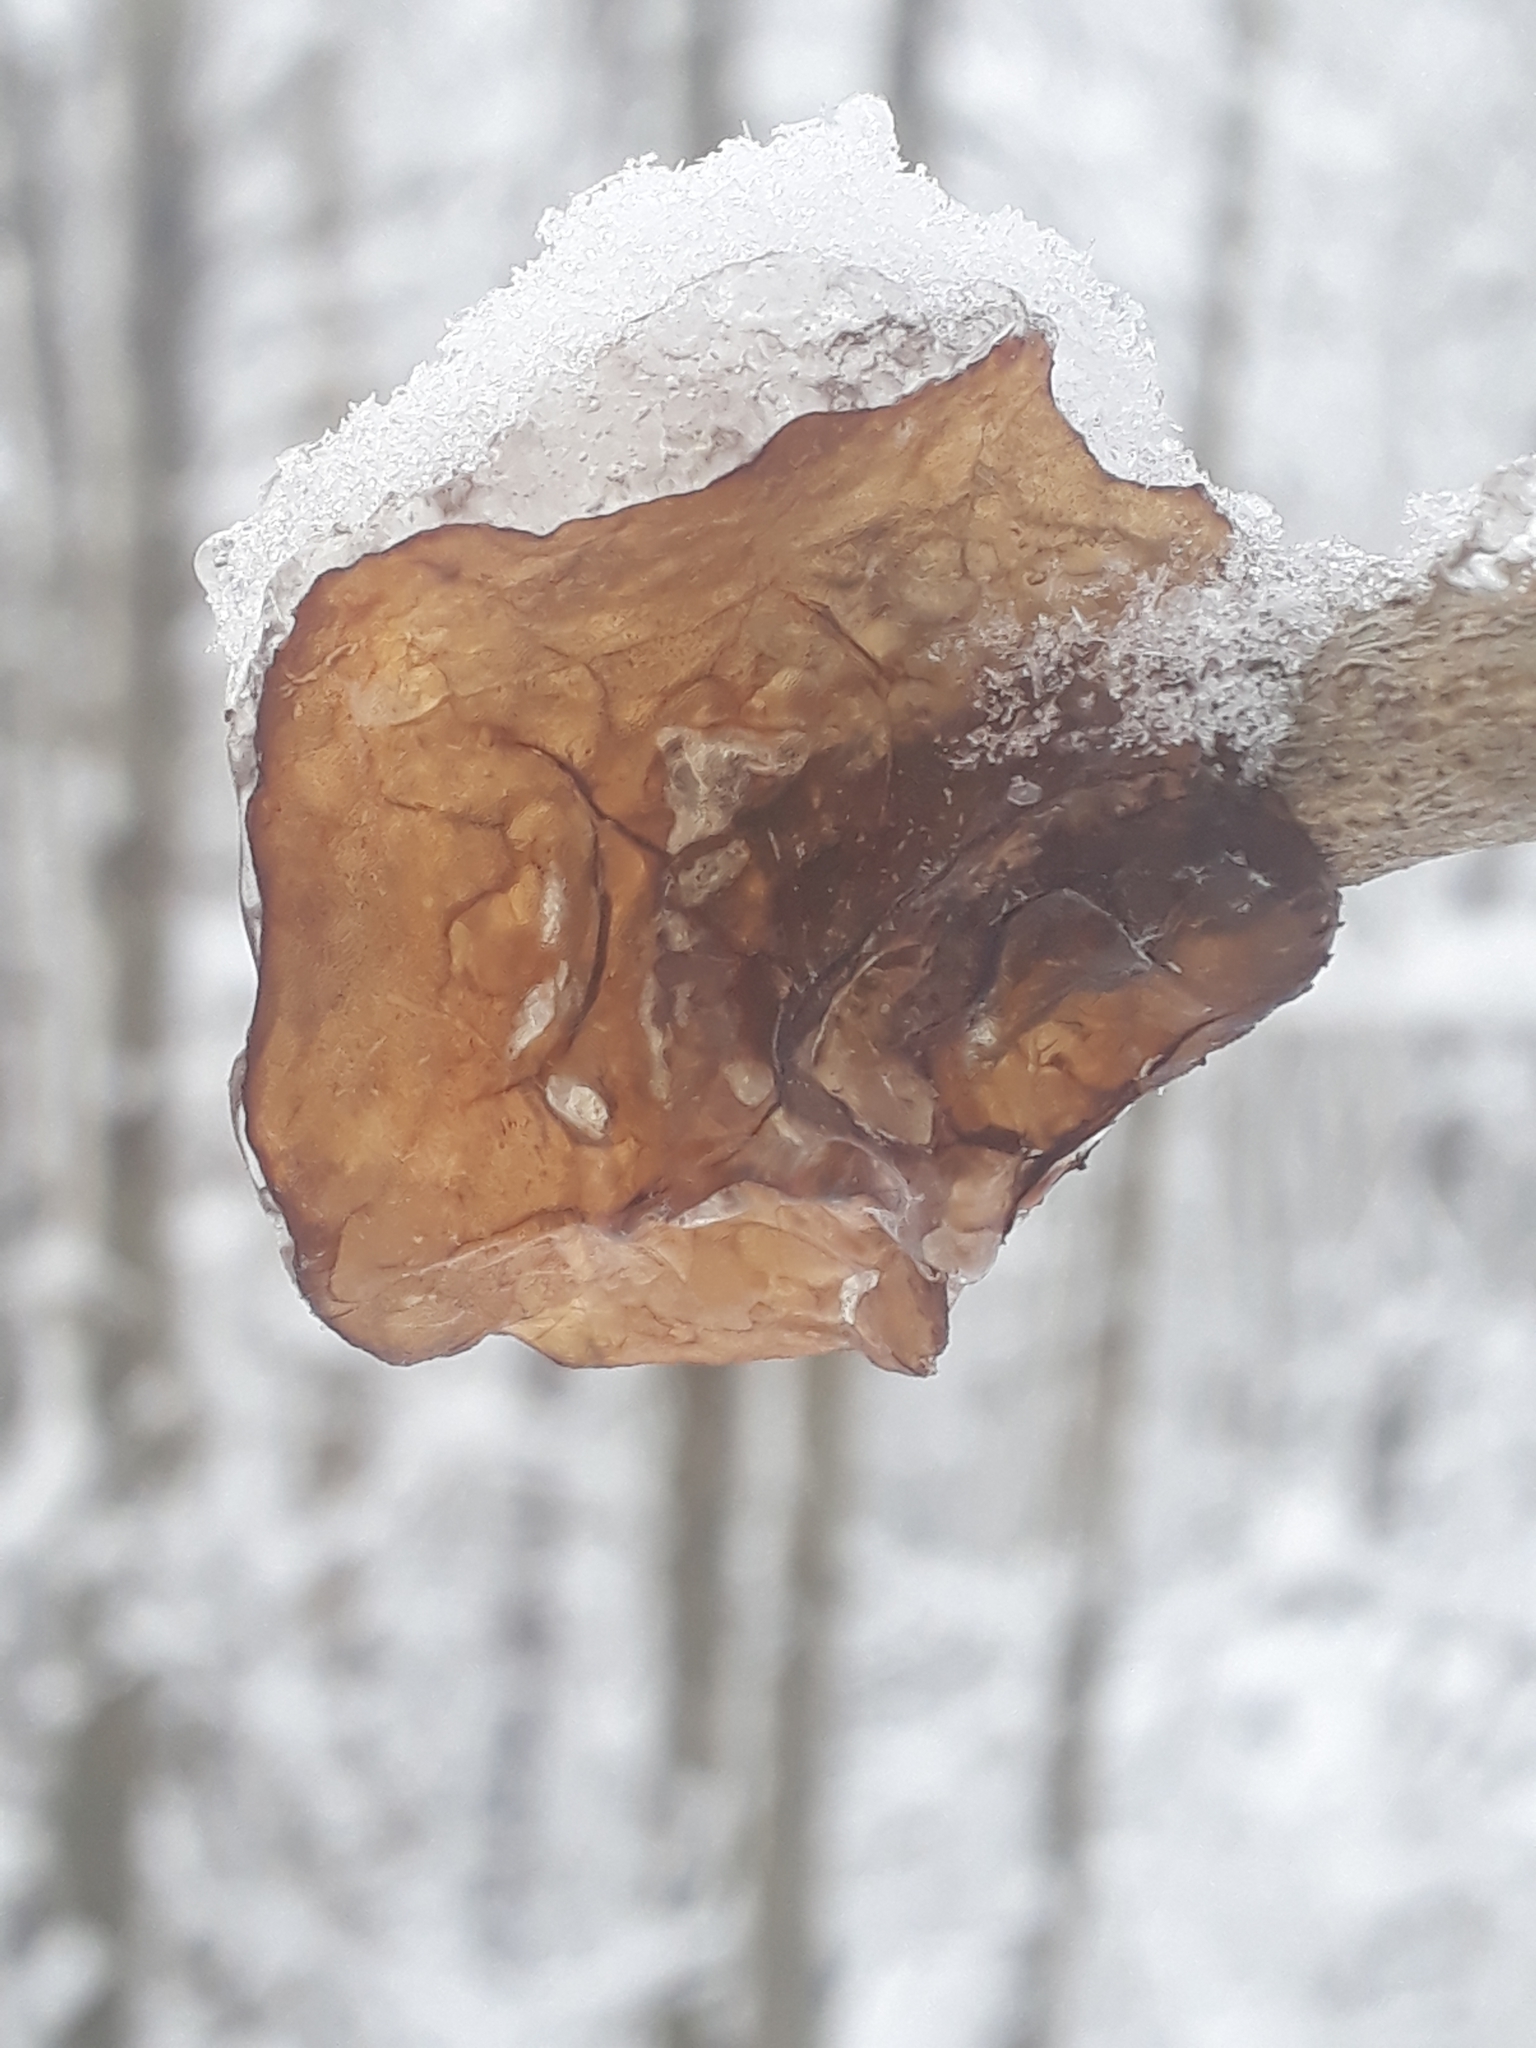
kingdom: Fungi
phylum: Basidiomycota
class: Agaricomycetes
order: Auriculariales
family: Auriculariaceae
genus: Exidia
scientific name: Exidia recisa
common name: Amber jelly
